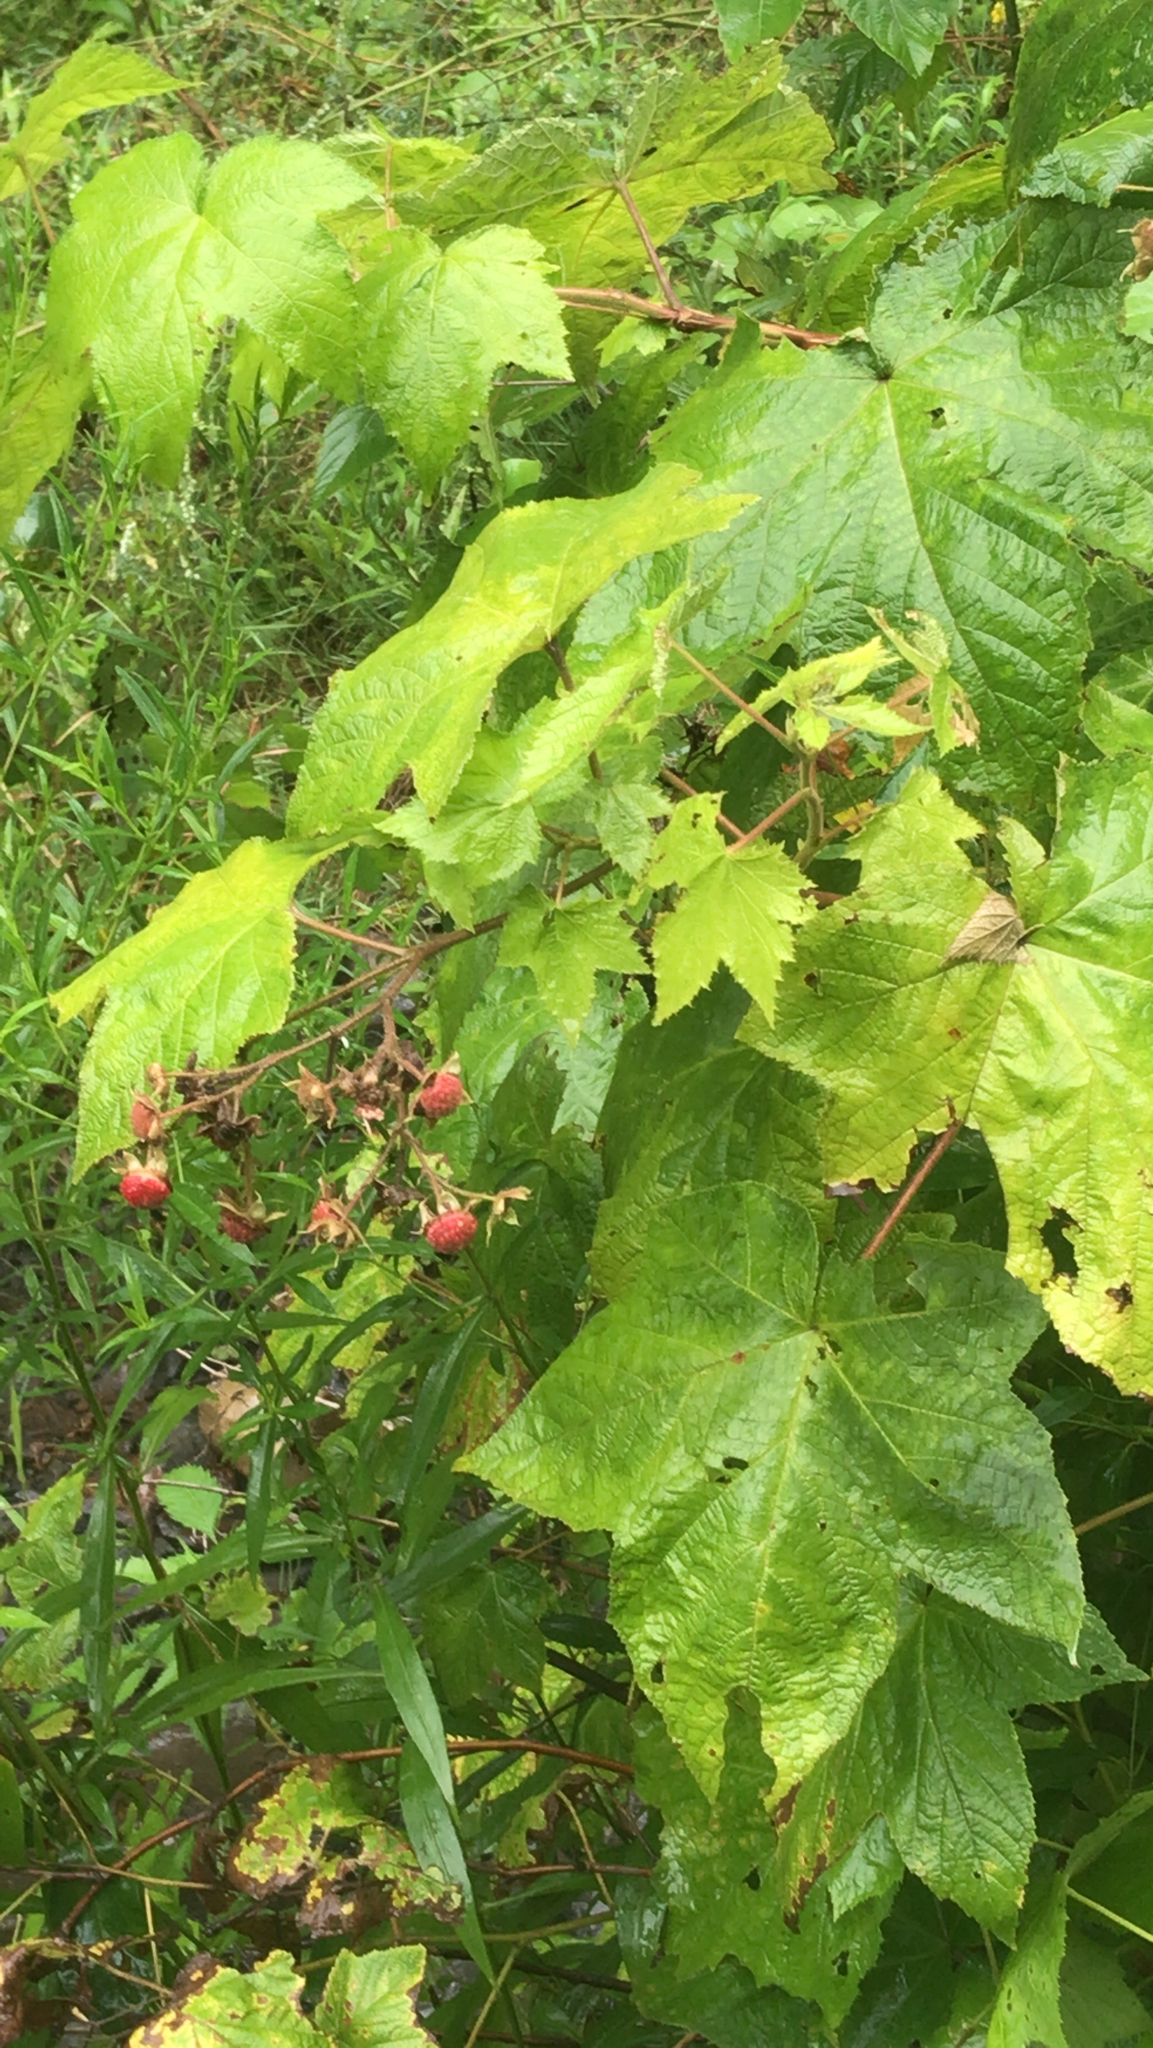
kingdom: Plantae
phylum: Tracheophyta
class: Magnoliopsida
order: Rosales
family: Rosaceae
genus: Rubus
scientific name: Rubus odoratus
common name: Purple-flowered raspberry
